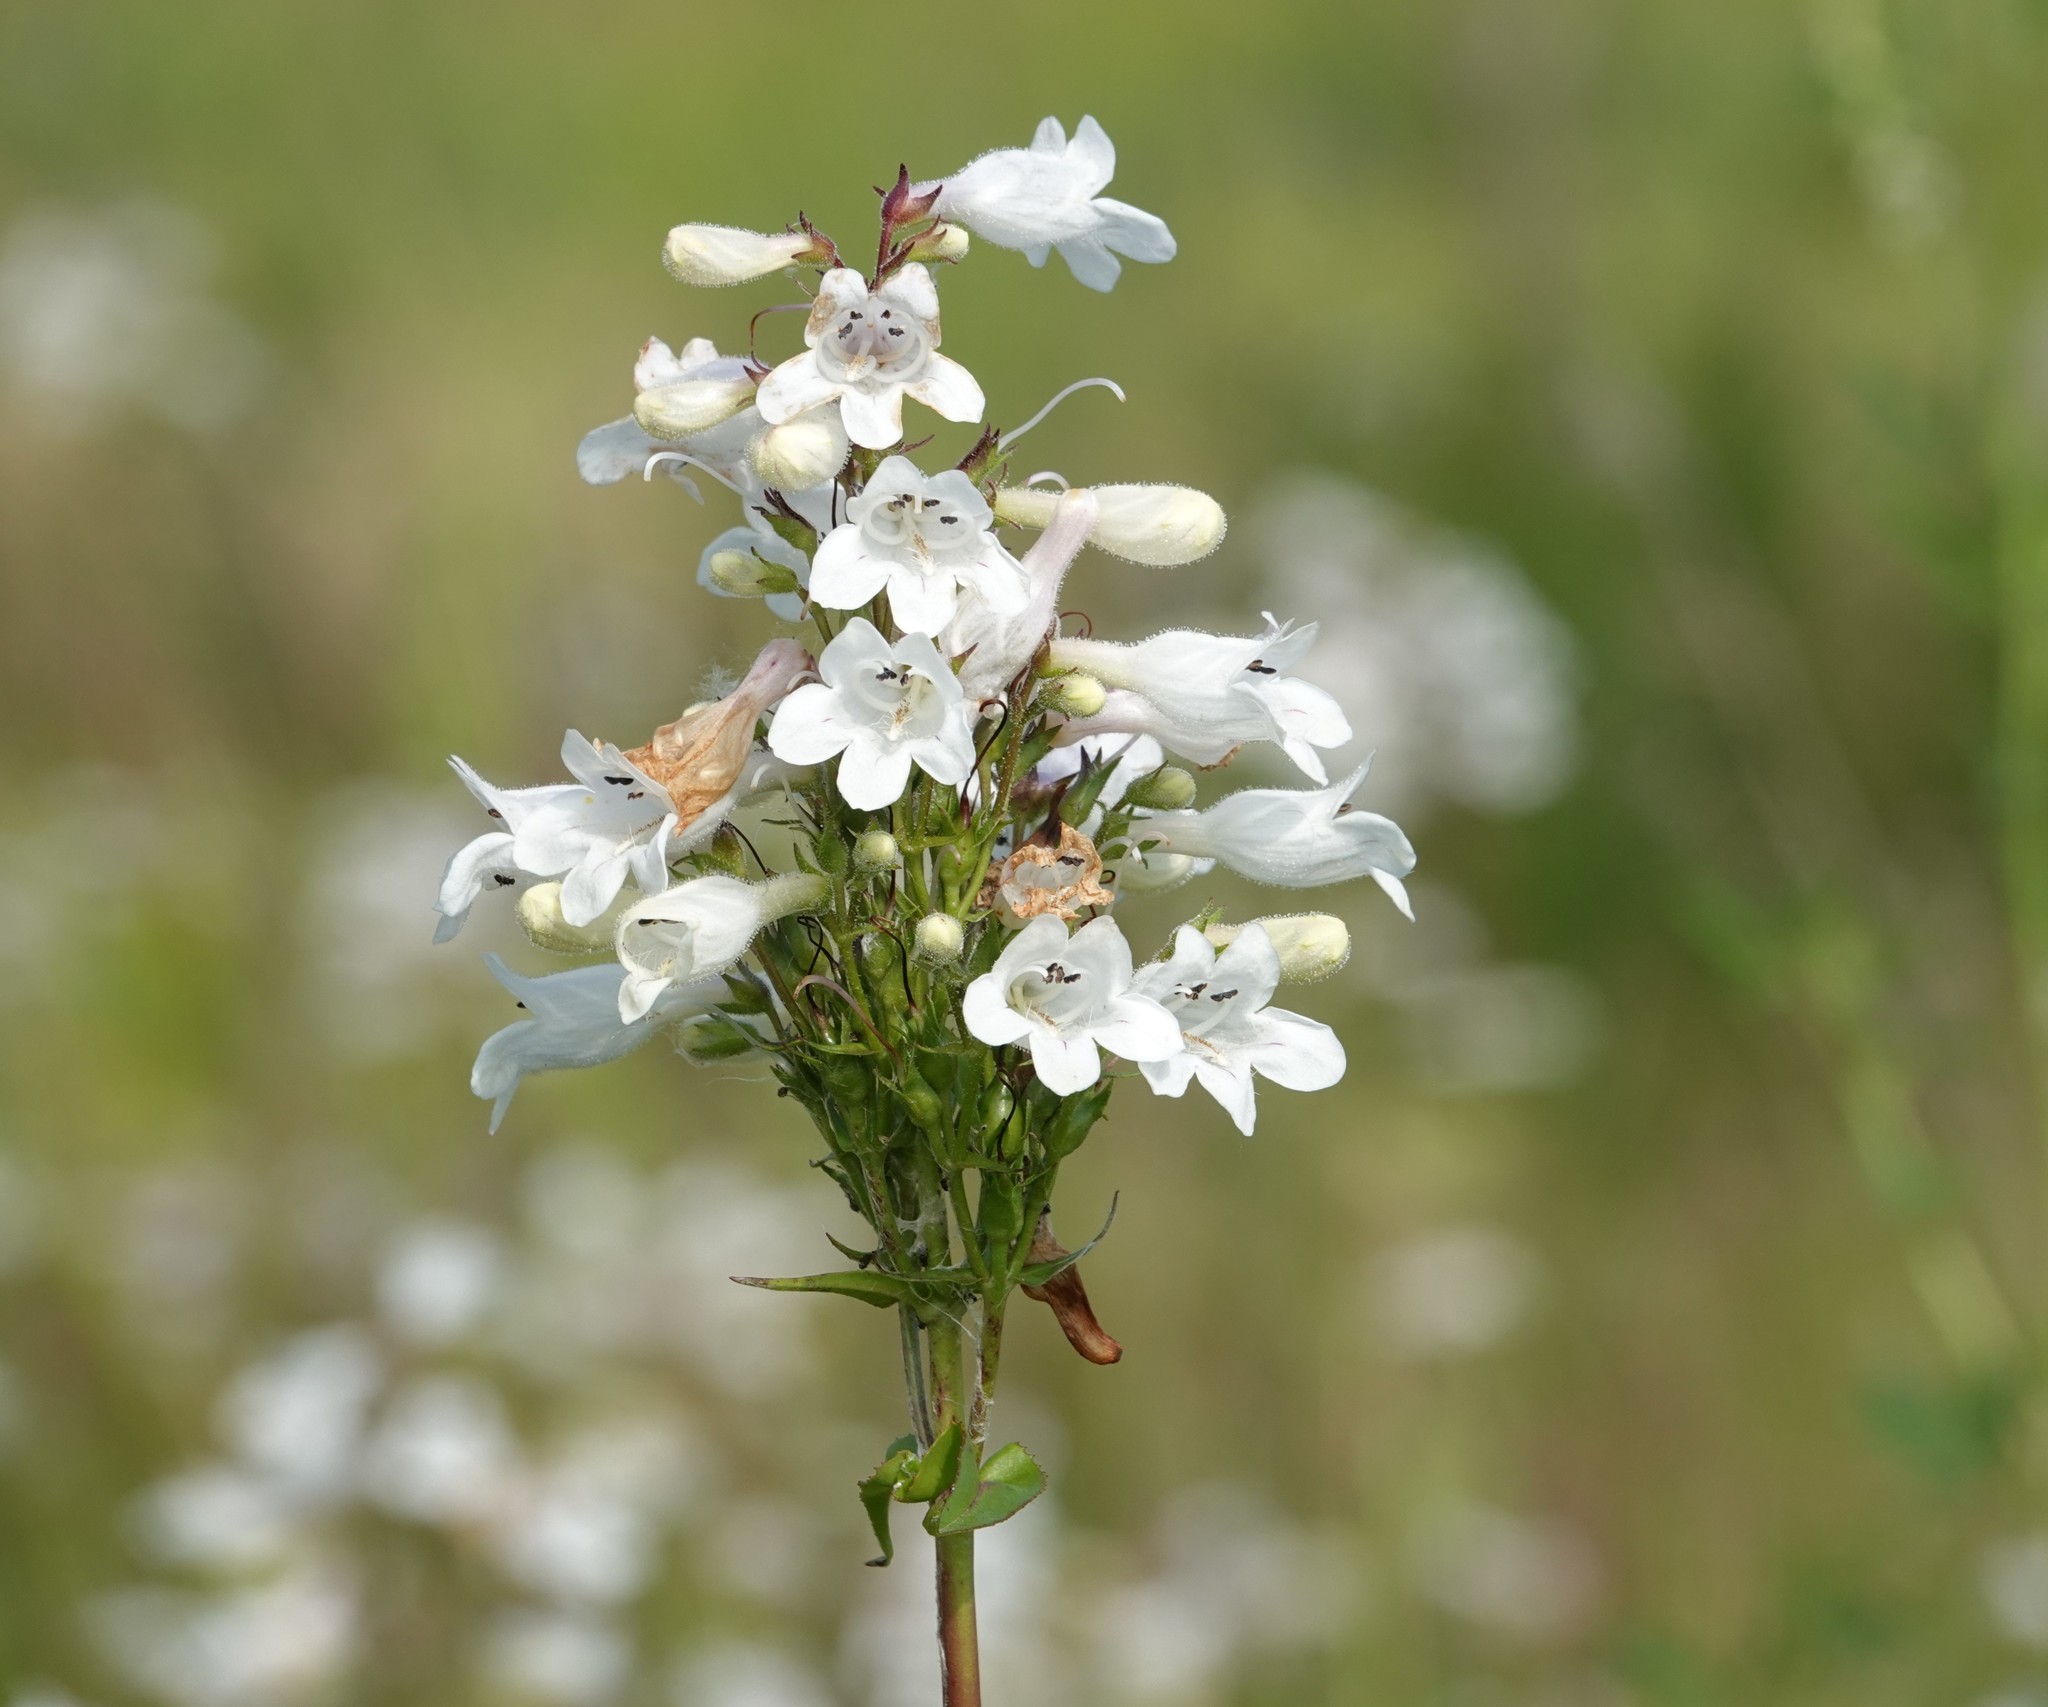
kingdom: Plantae
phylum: Tracheophyta
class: Magnoliopsida
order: Lamiales
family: Plantaginaceae
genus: Penstemon
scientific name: Penstemon digitalis
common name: Foxglove beardtongue
